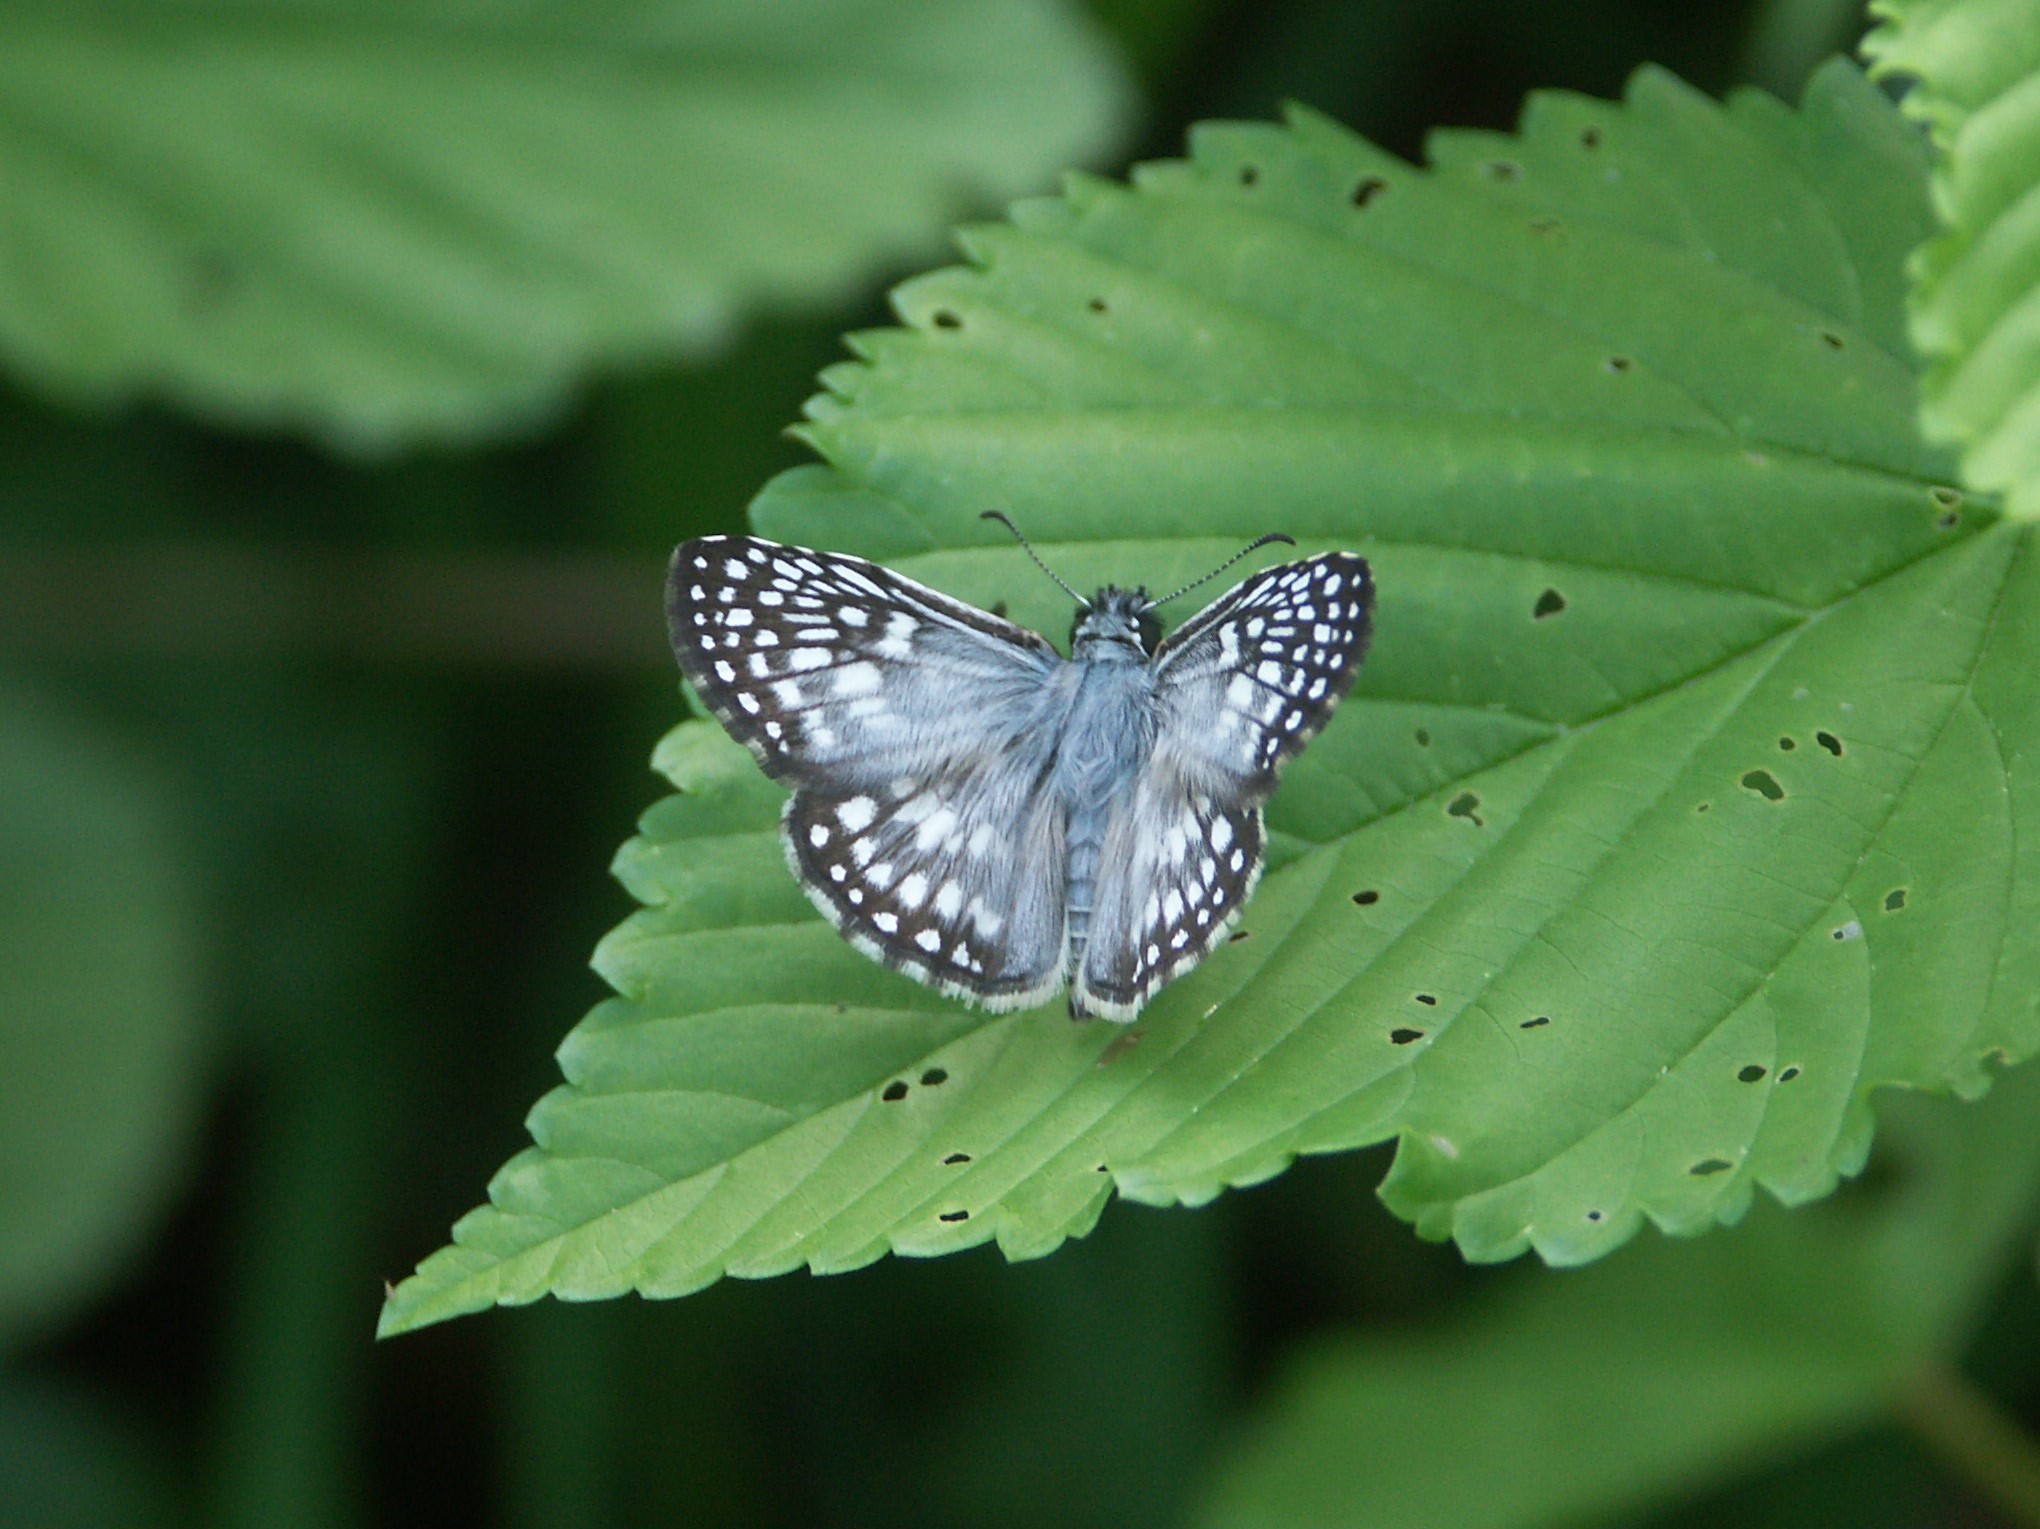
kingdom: Animalia
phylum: Arthropoda
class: Insecta
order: Lepidoptera
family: Hesperiidae
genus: Pyrgus
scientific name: Pyrgus oileus
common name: Tropical checkered-skipper
